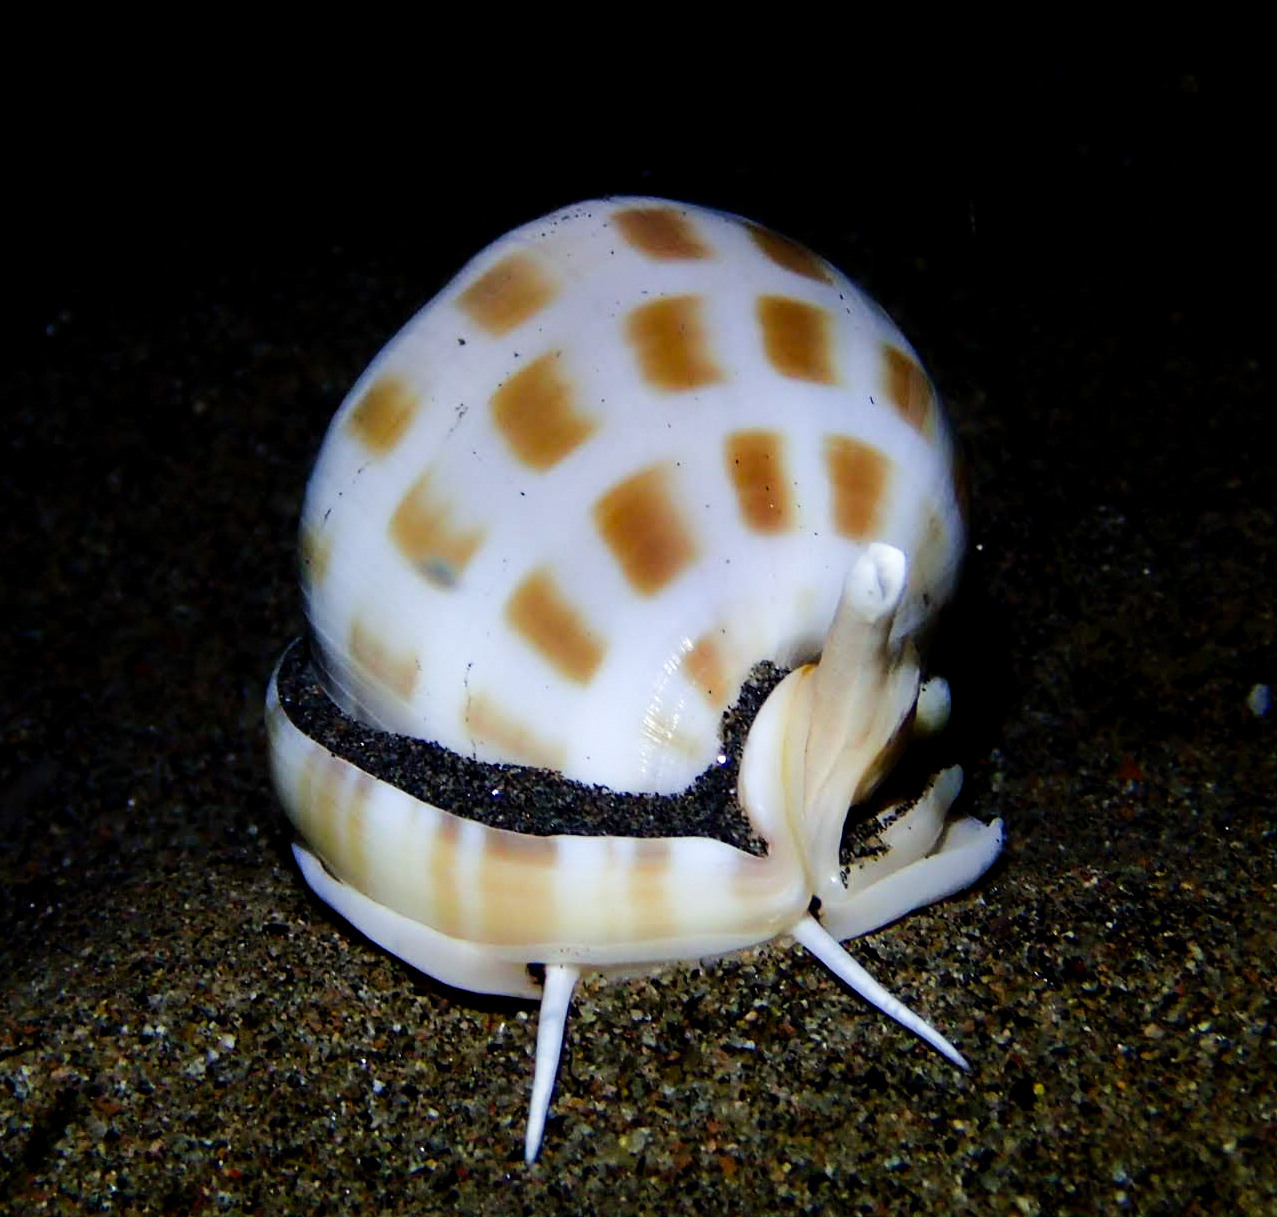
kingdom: Animalia
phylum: Mollusca
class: Gastropoda
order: Littorinimorpha
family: Cassidae
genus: Phalium
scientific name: Phalium areola
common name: Checkered bonnet
